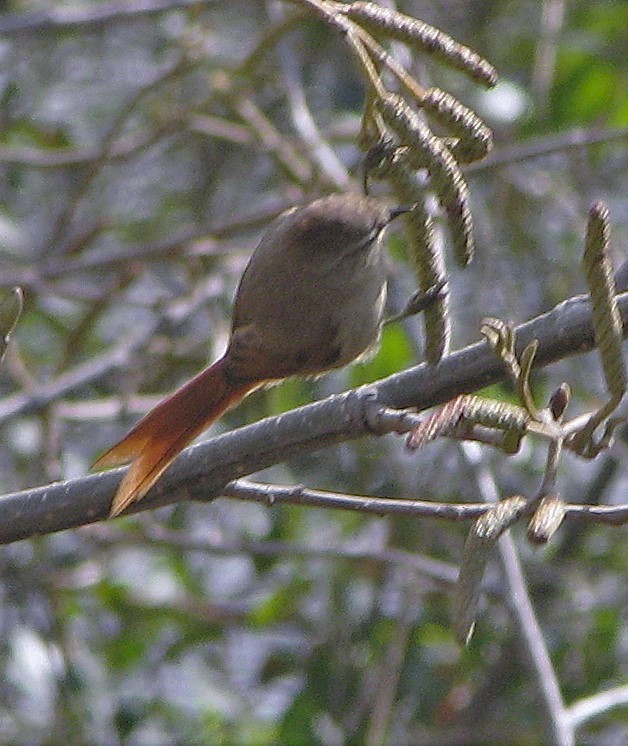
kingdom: Animalia
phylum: Chordata
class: Aves
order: Passeriformes
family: Furnariidae
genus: Leptasthenura
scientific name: Leptasthenura fuliginiceps
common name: Brown-capped tit-spinetail
